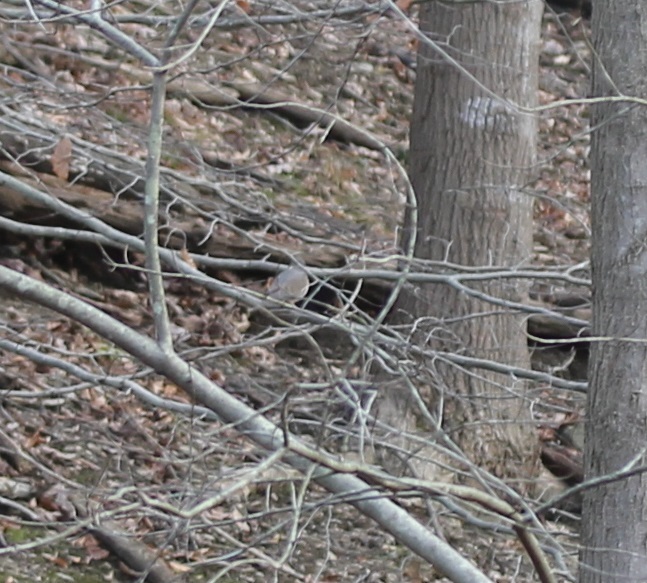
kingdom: Animalia
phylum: Chordata
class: Aves
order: Columbiformes
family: Columbidae
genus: Zenaida
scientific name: Zenaida macroura
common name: Mourning dove
